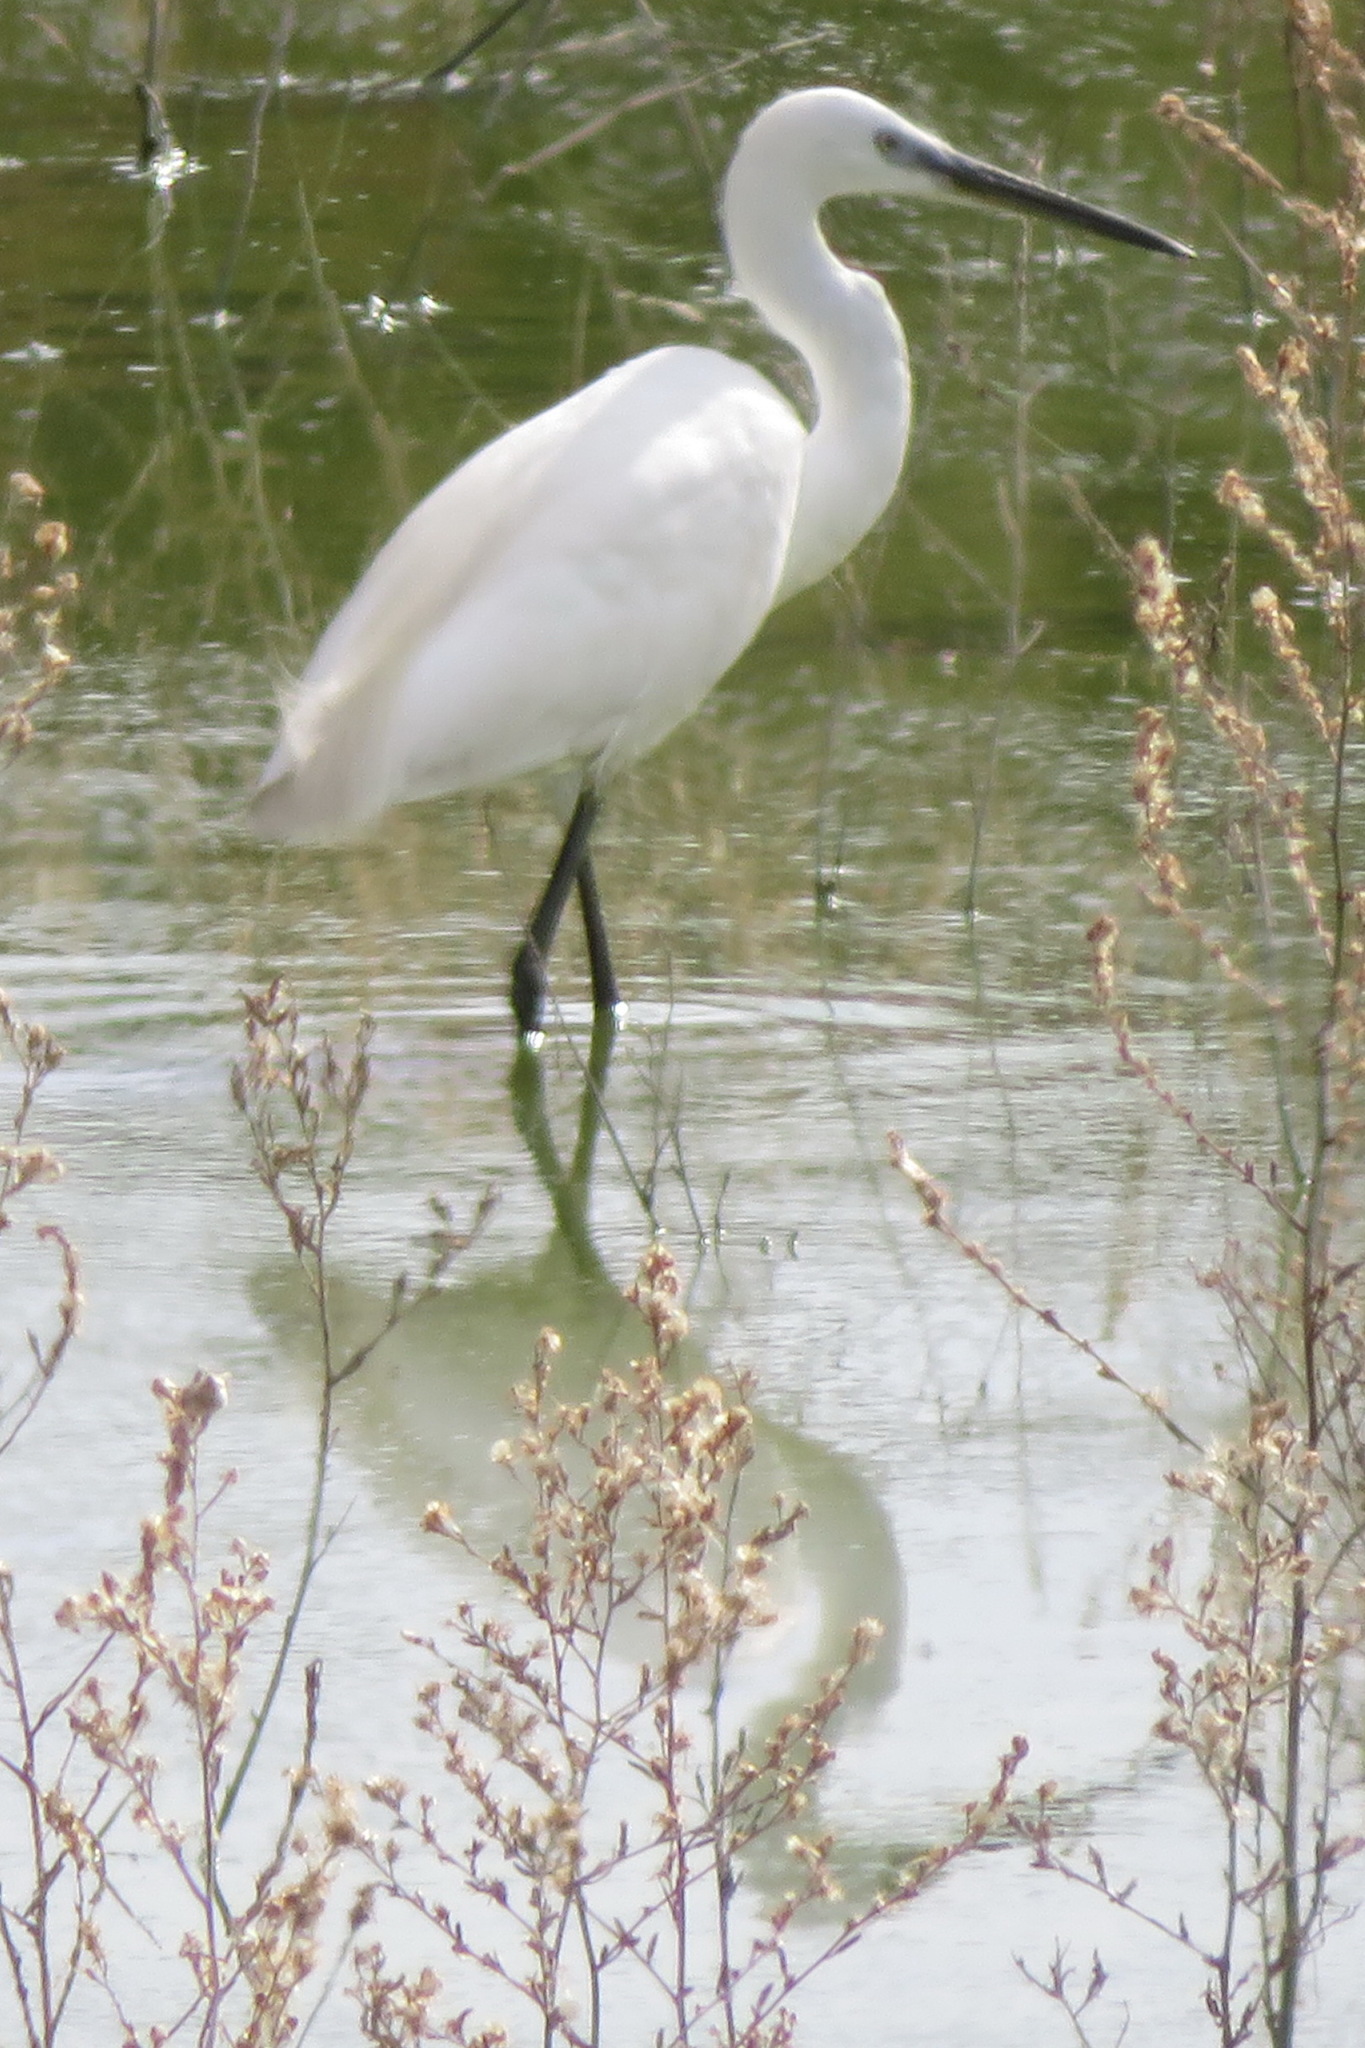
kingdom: Animalia
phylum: Chordata
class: Aves
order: Pelecaniformes
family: Ardeidae
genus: Egretta
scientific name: Egretta garzetta
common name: Little egret
